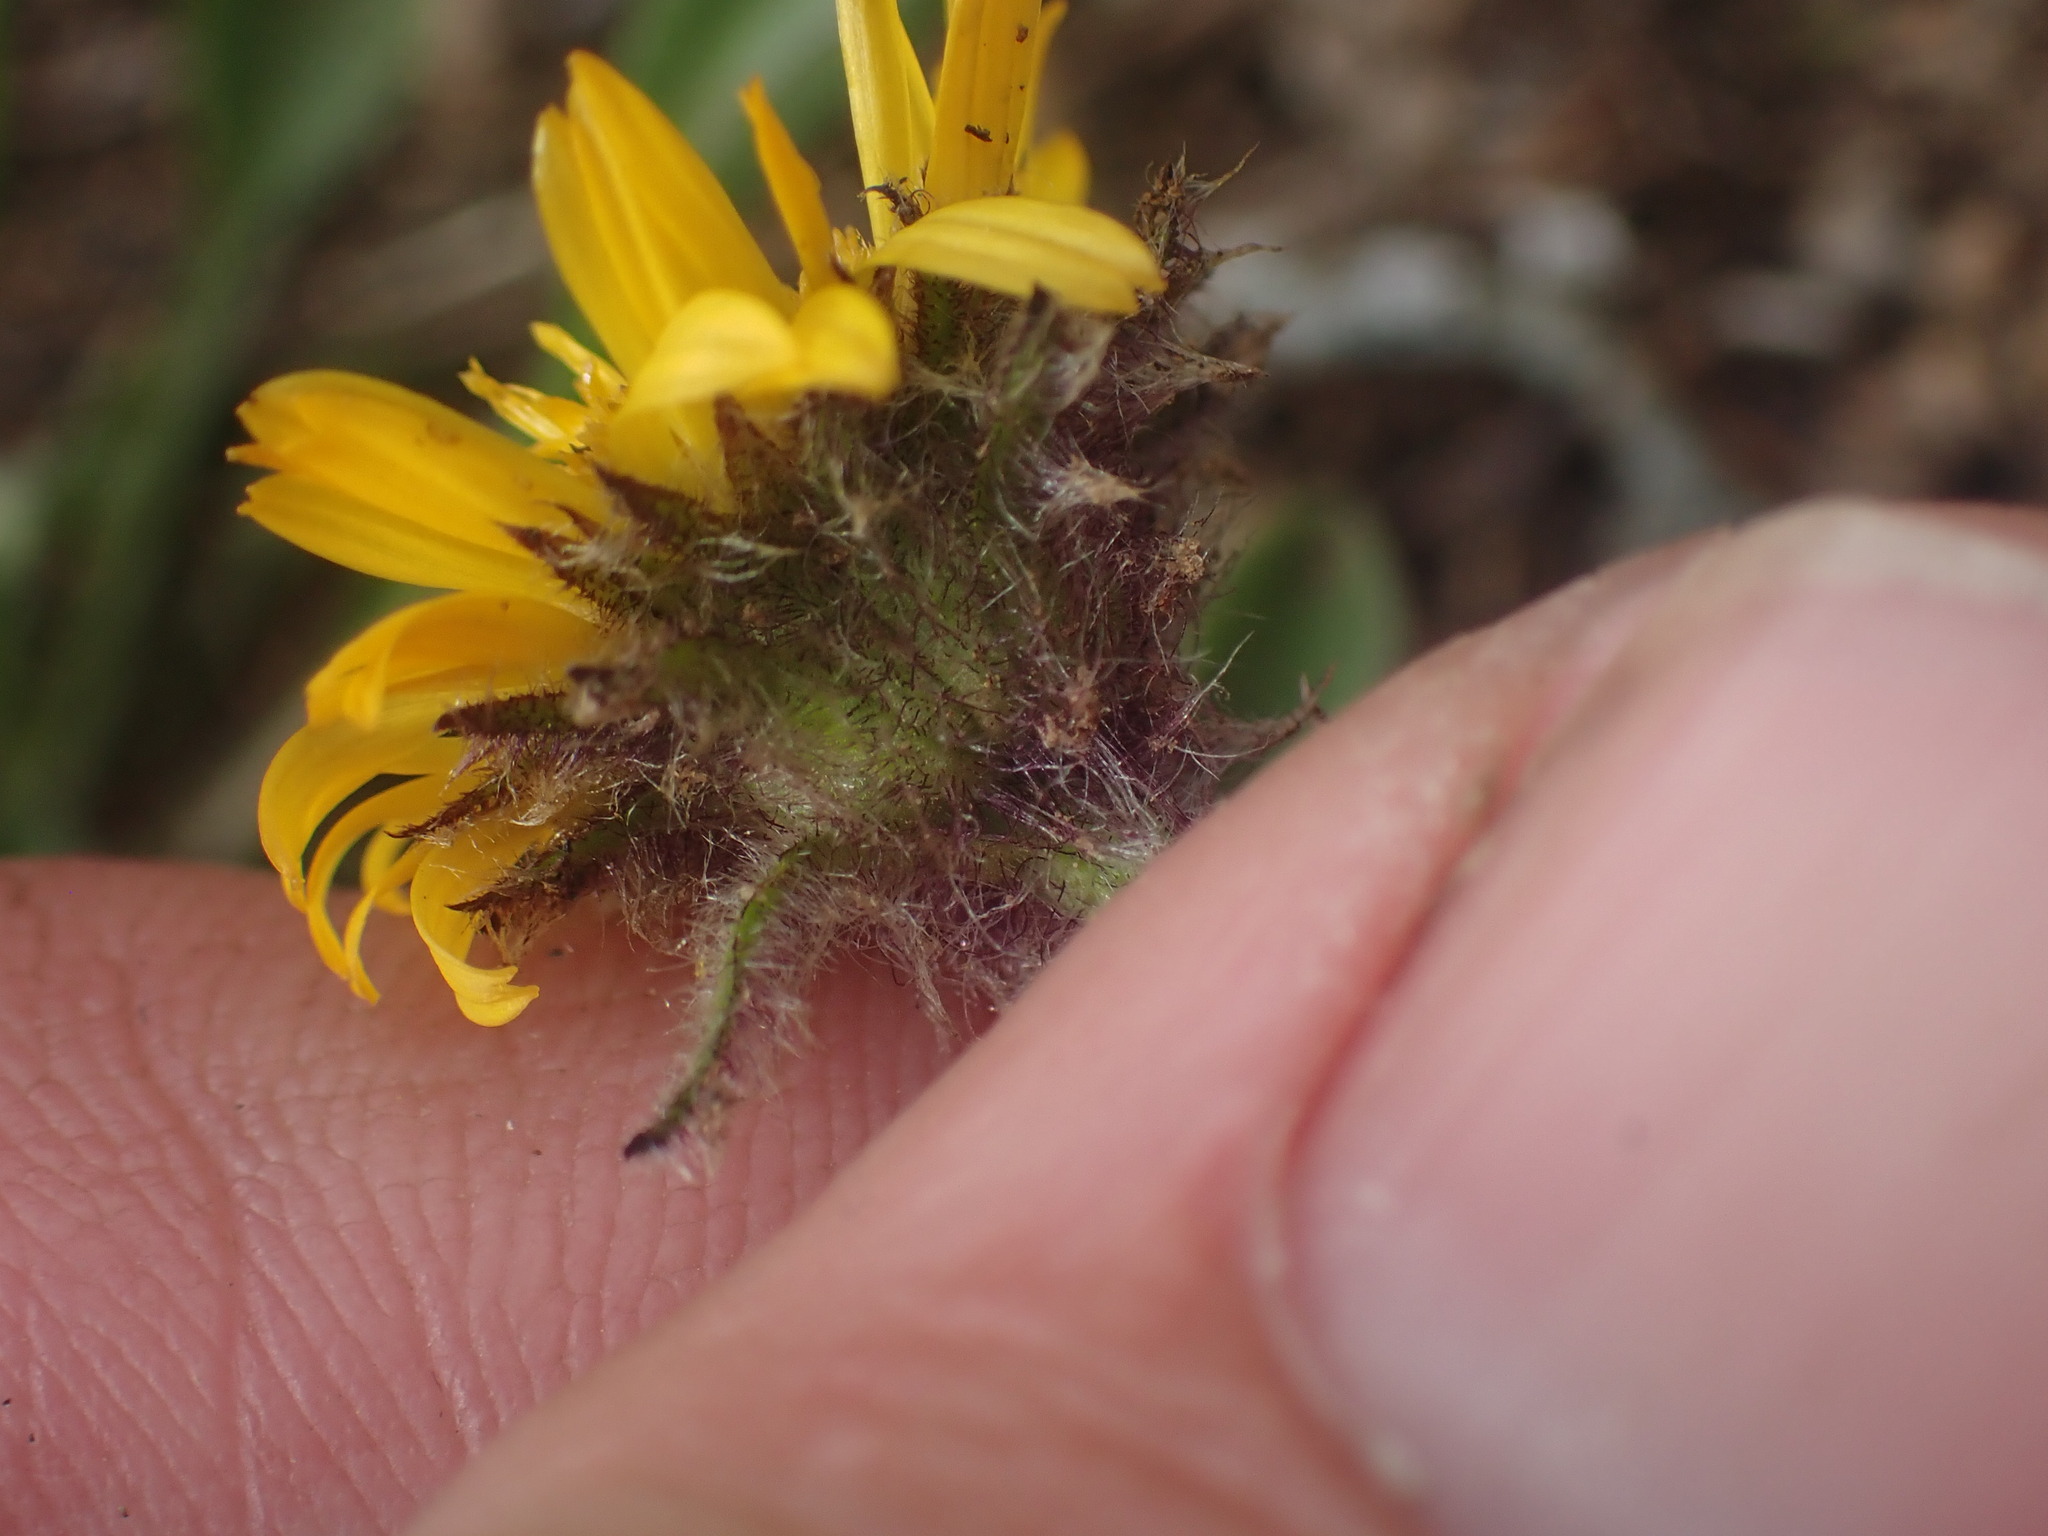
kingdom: Plantae
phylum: Tracheophyta
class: Magnoliopsida
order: Asterales
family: Asteraceae
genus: Erigeron
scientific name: Erigeron aureus
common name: Alpine yellow fleabane
